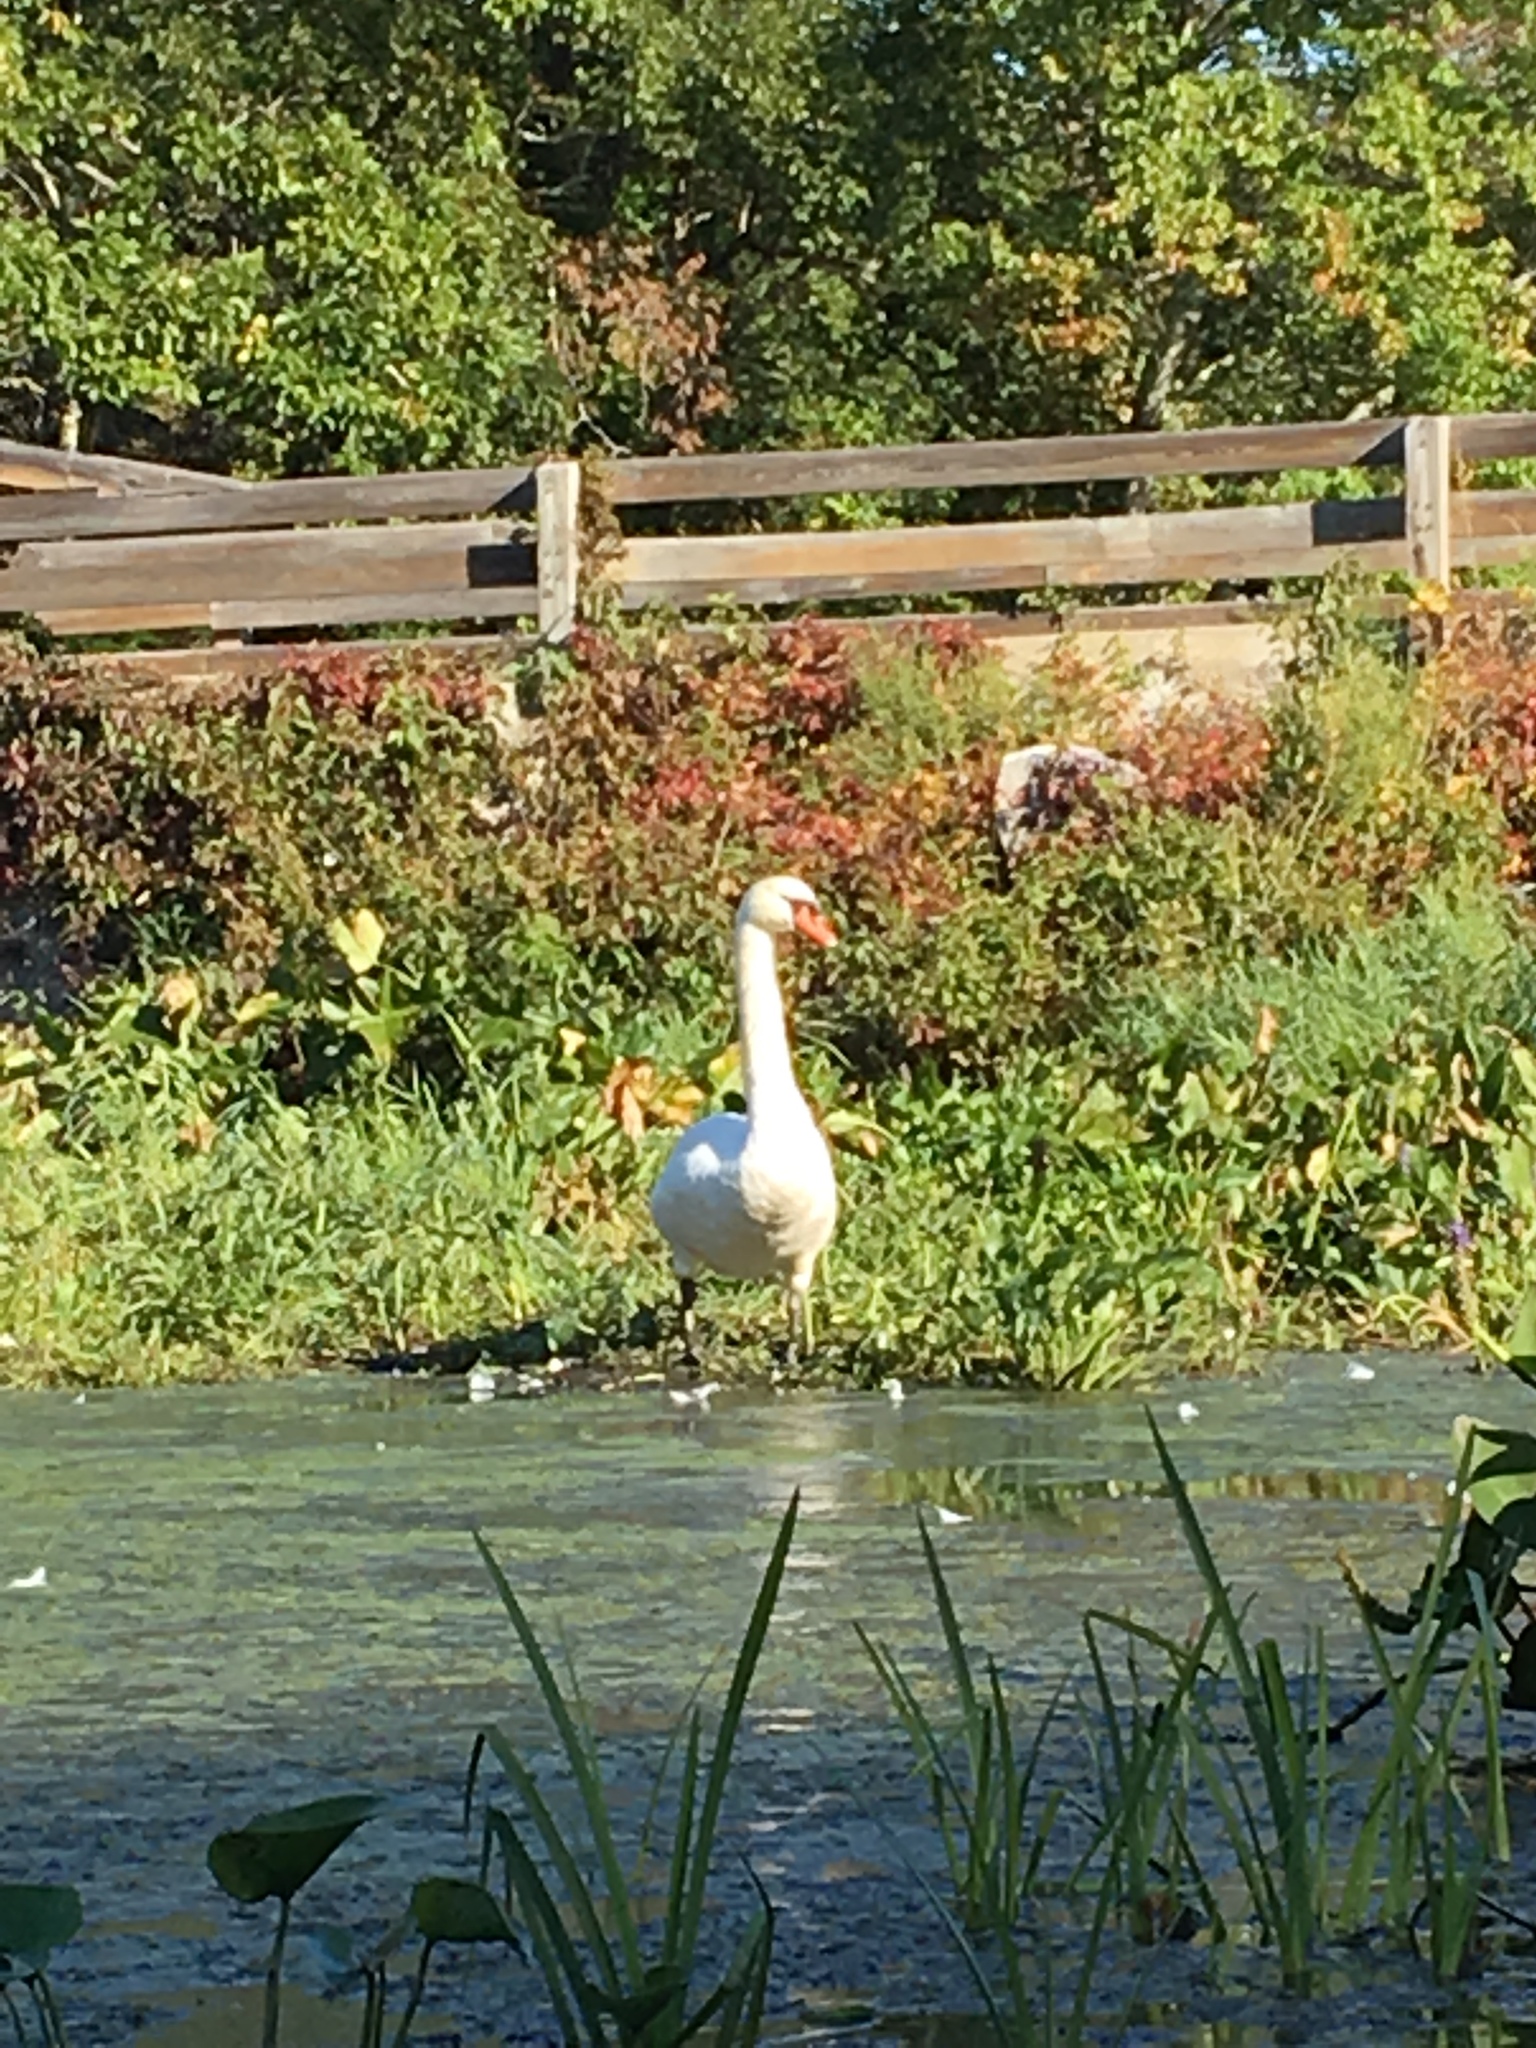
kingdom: Animalia
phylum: Chordata
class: Aves
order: Anseriformes
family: Anatidae
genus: Cygnus
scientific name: Cygnus olor
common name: Mute swan
